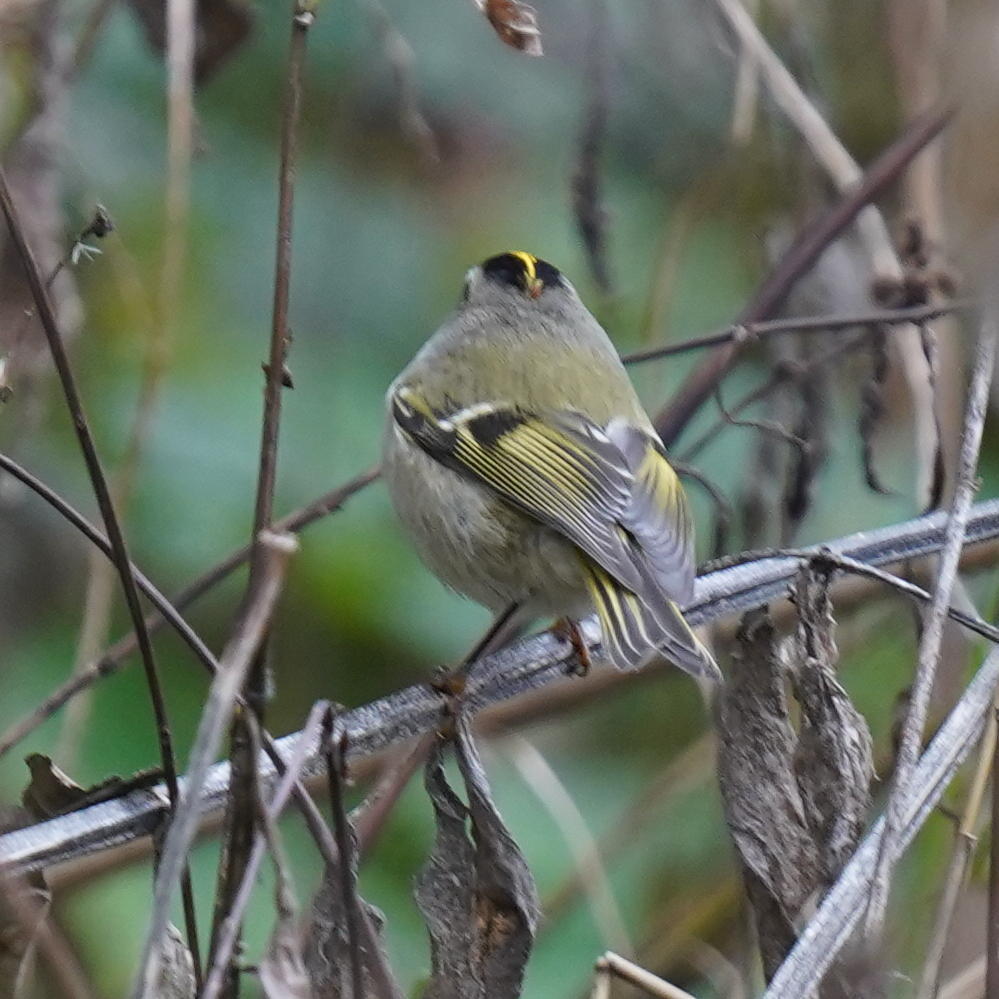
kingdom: Animalia
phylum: Chordata
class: Aves
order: Passeriformes
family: Regulidae
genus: Regulus
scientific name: Regulus satrapa
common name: Golden-crowned kinglet
